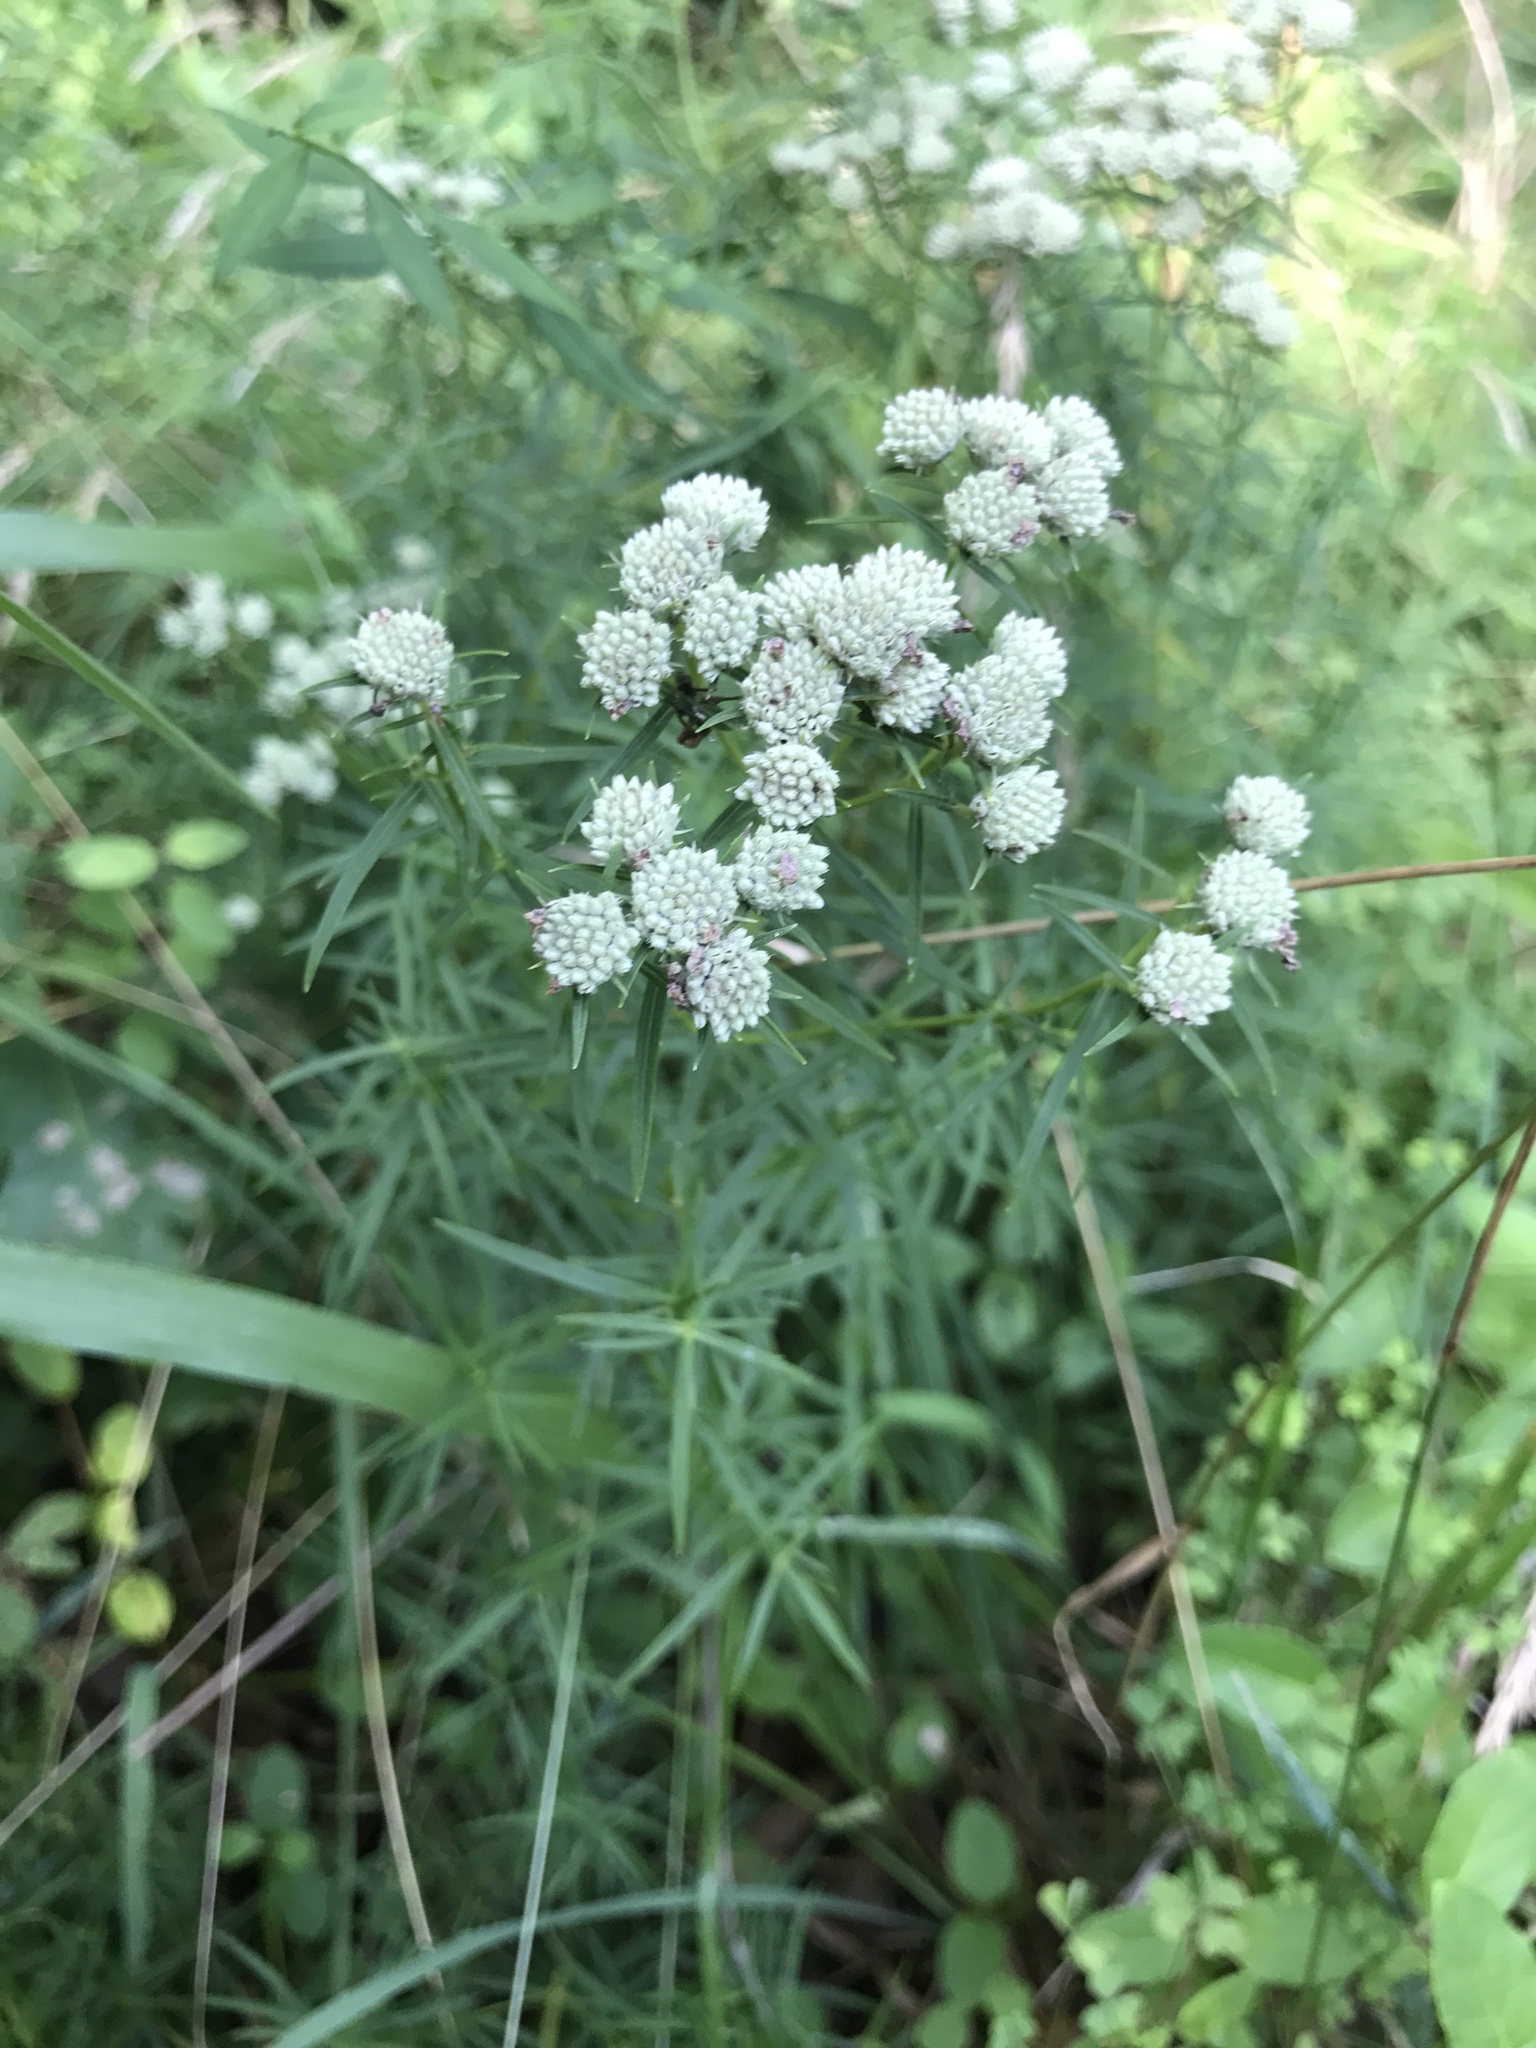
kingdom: Plantae
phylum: Tracheophyta
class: Magnoliopsida
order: Lamiales
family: Lamiaceae
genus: Pycnanthemum
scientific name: Pycnanthemum tenuifolium
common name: Narrow-leaf mountain-mint
